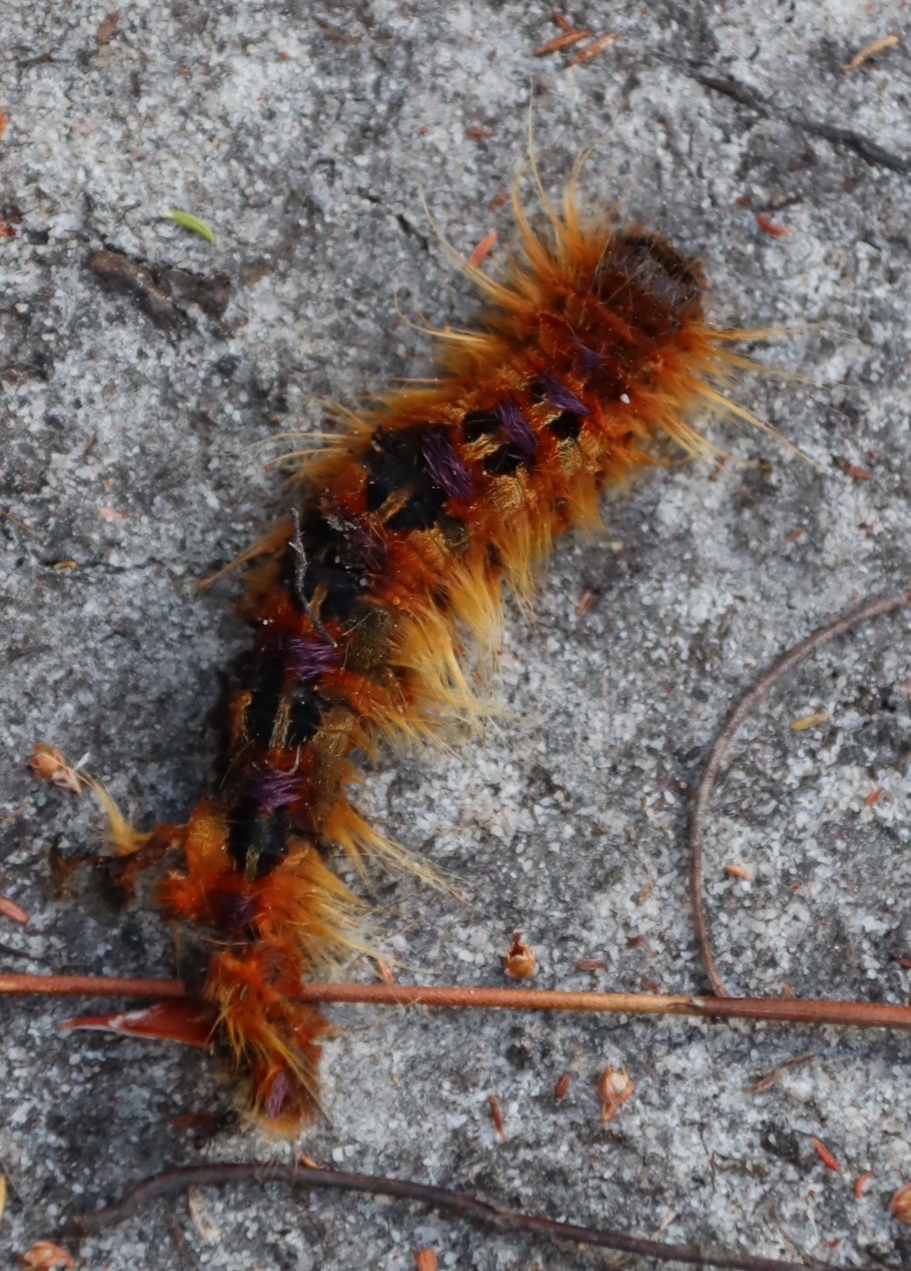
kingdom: Animalia
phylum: Arthropoda
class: Insecta
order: Lepidoptera
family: Lasiocampidae
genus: Eutricha
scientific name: Eutricha bifascia
